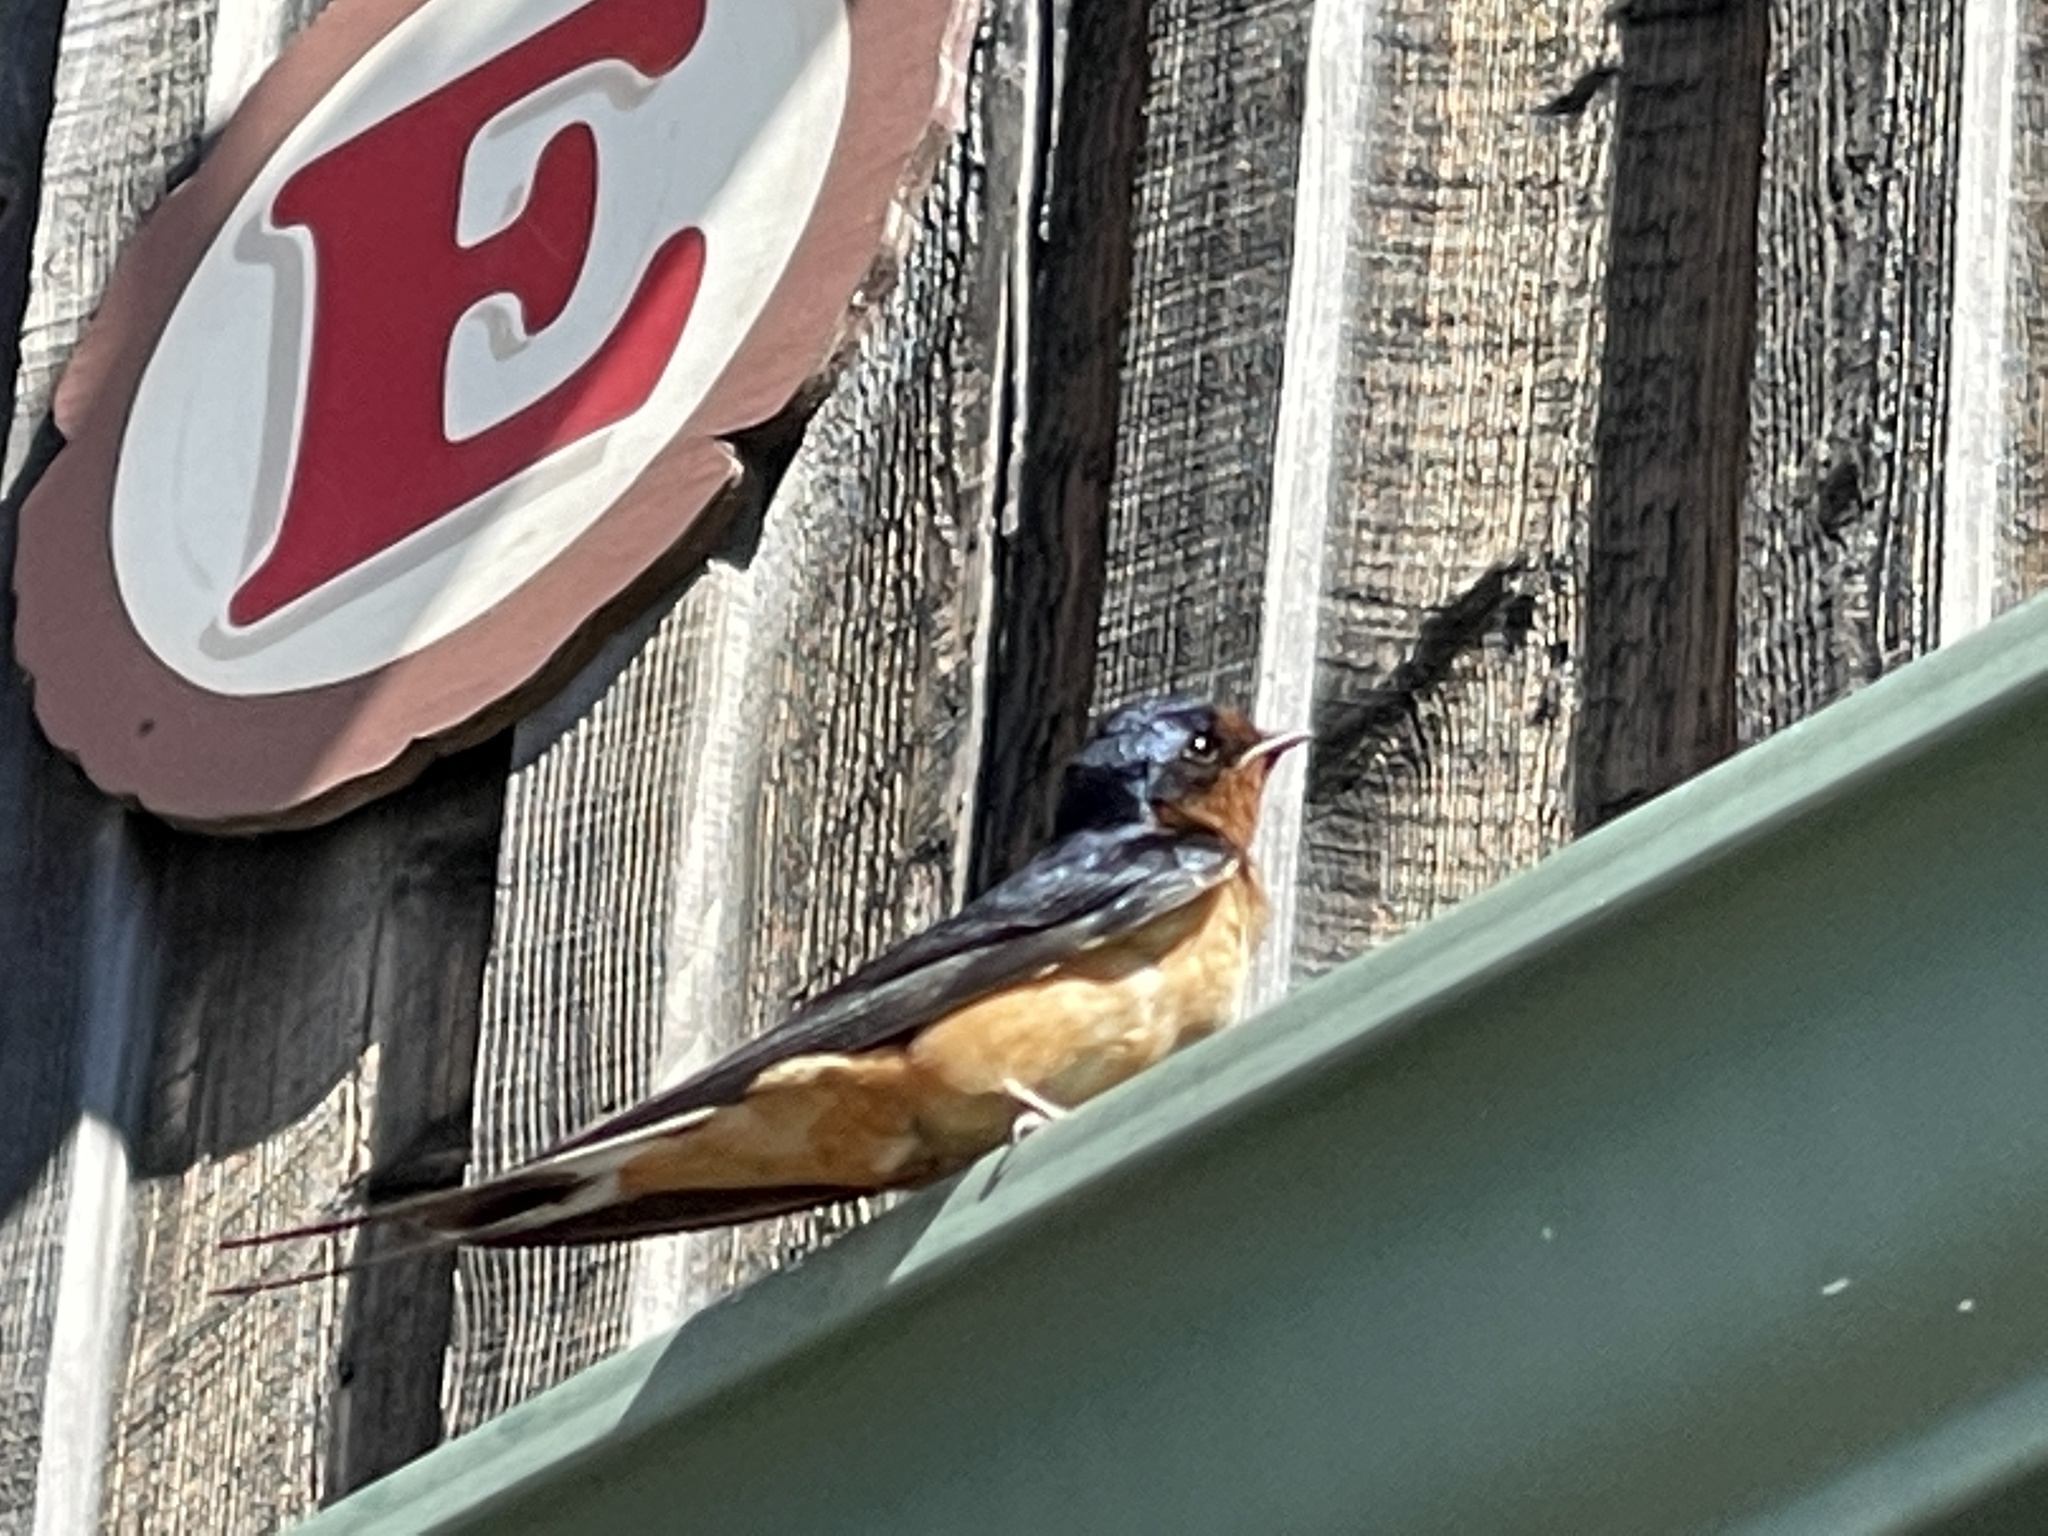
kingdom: Animalia
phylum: Chordata
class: Aves
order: Passeriformes
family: Hirundinidae
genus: Hirundo
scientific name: Hirundo rustica
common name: Barn swallow
